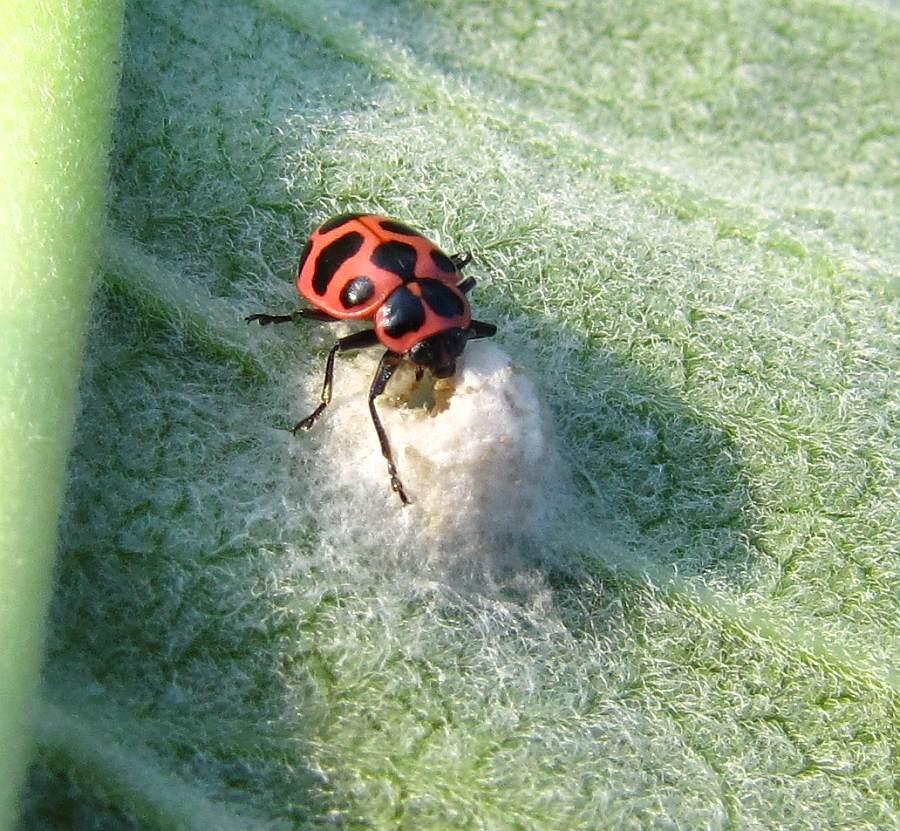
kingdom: Animalia
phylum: Arthropoda
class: Insecta
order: Coleoptera
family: Coccinellidae
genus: Coleomegilla
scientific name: Coleomegilla maculata
